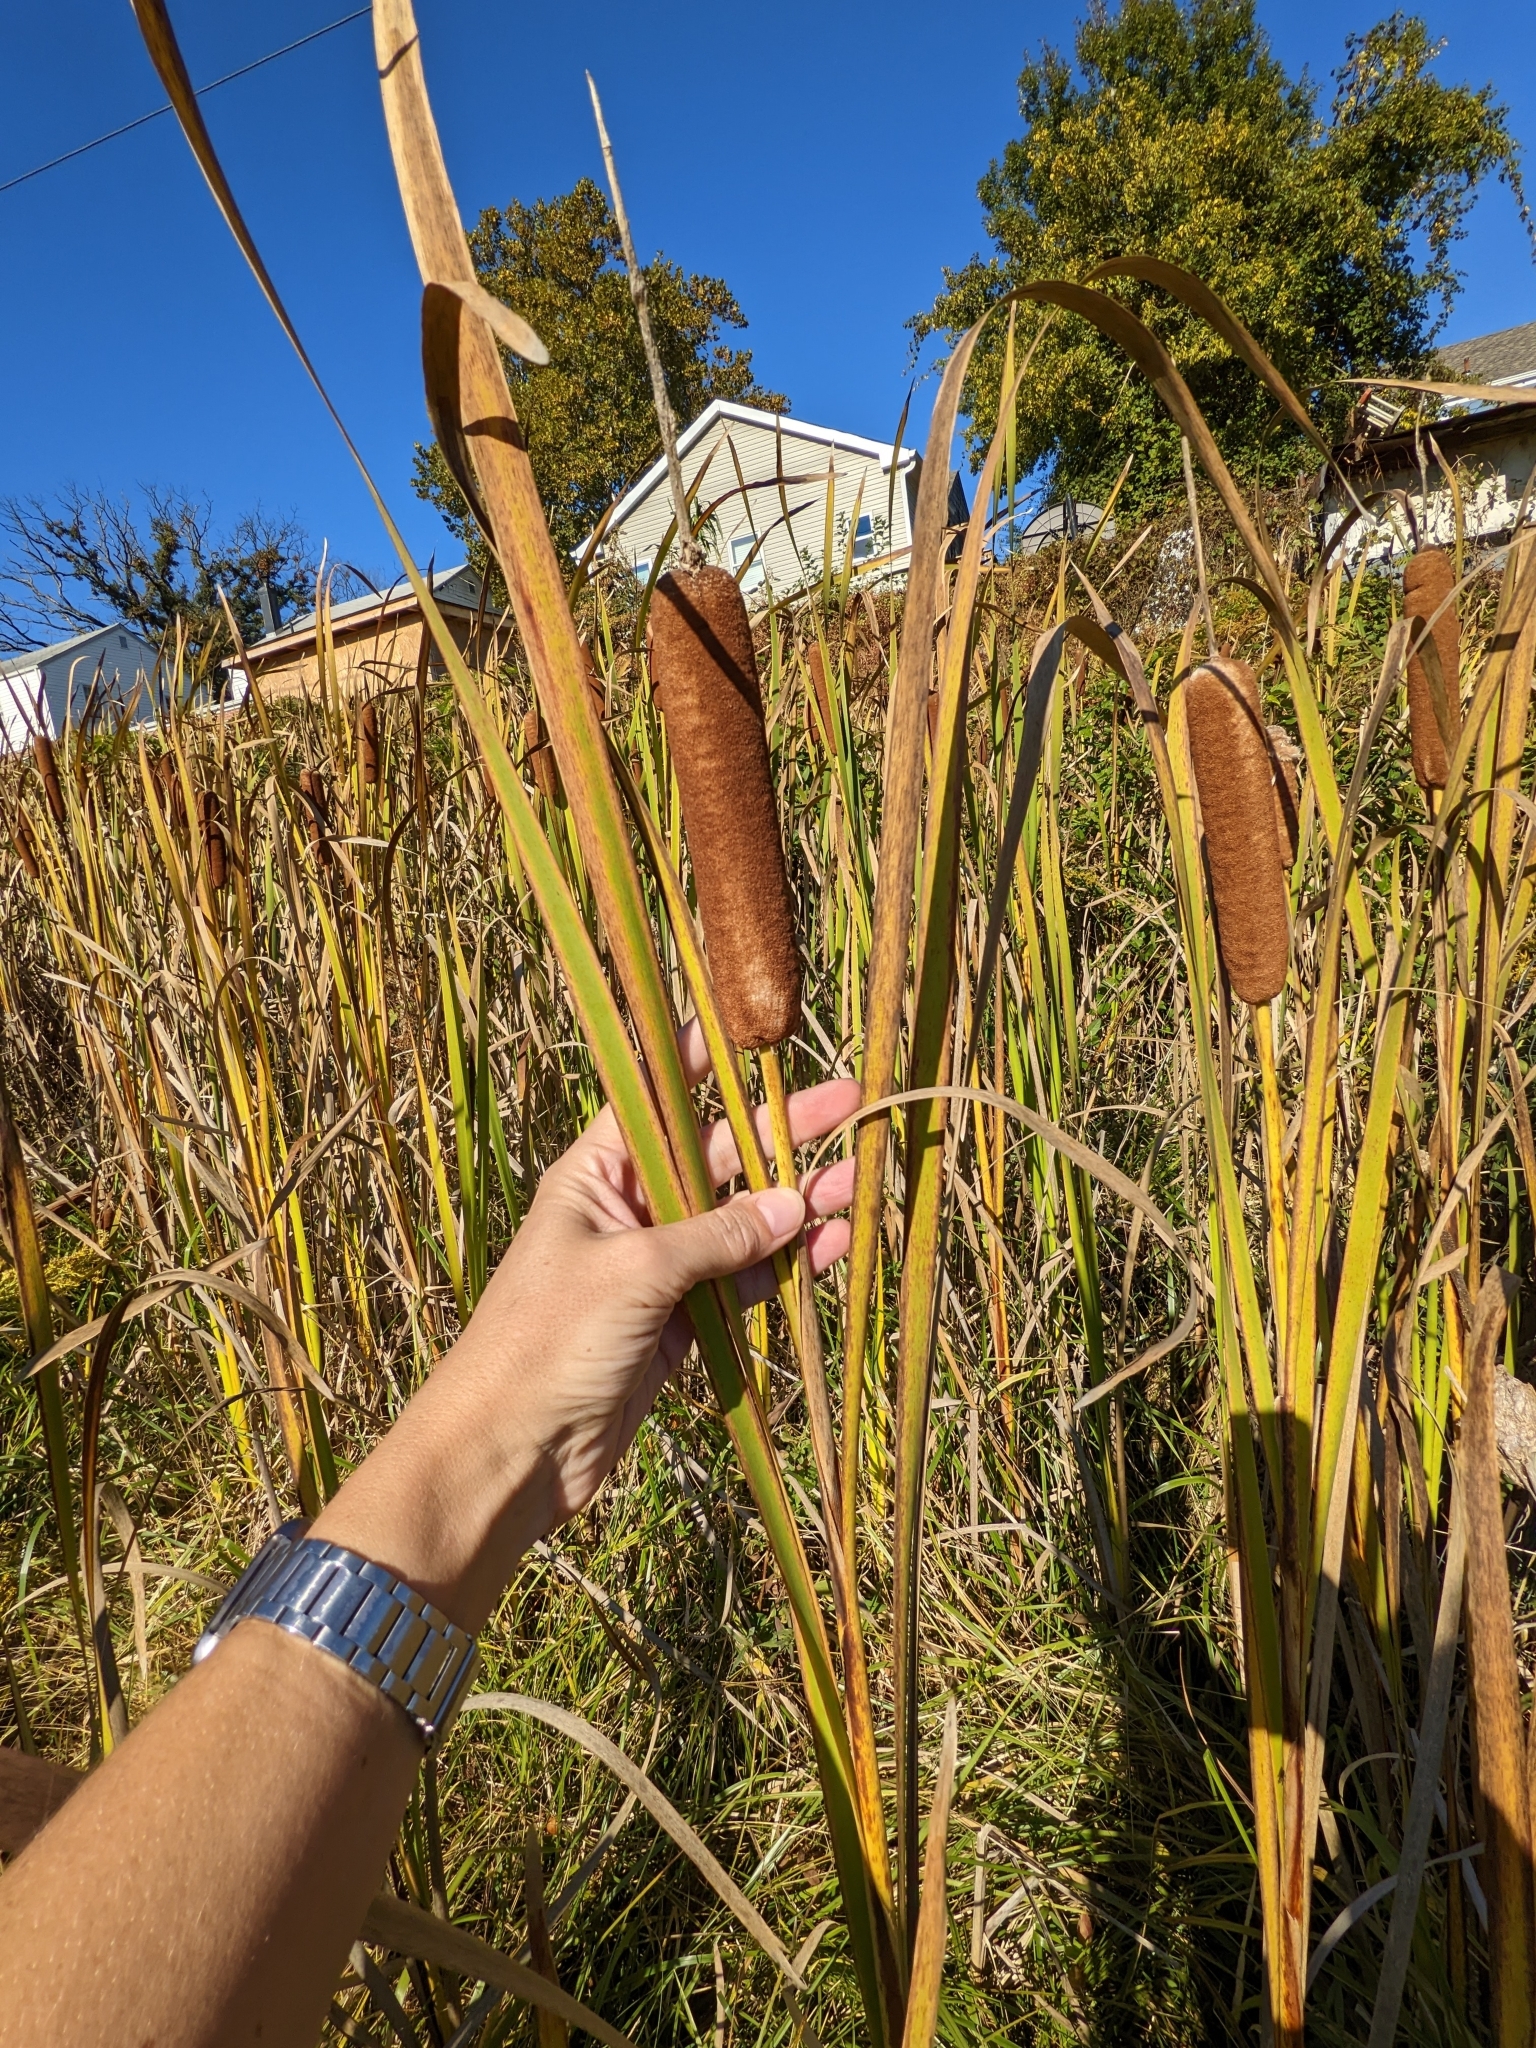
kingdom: Plantae
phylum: Tracheophyta
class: Liliopsida
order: Poales
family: Typhaceae
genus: Typha
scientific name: Typha latifolia
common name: Broadleaf cattail
